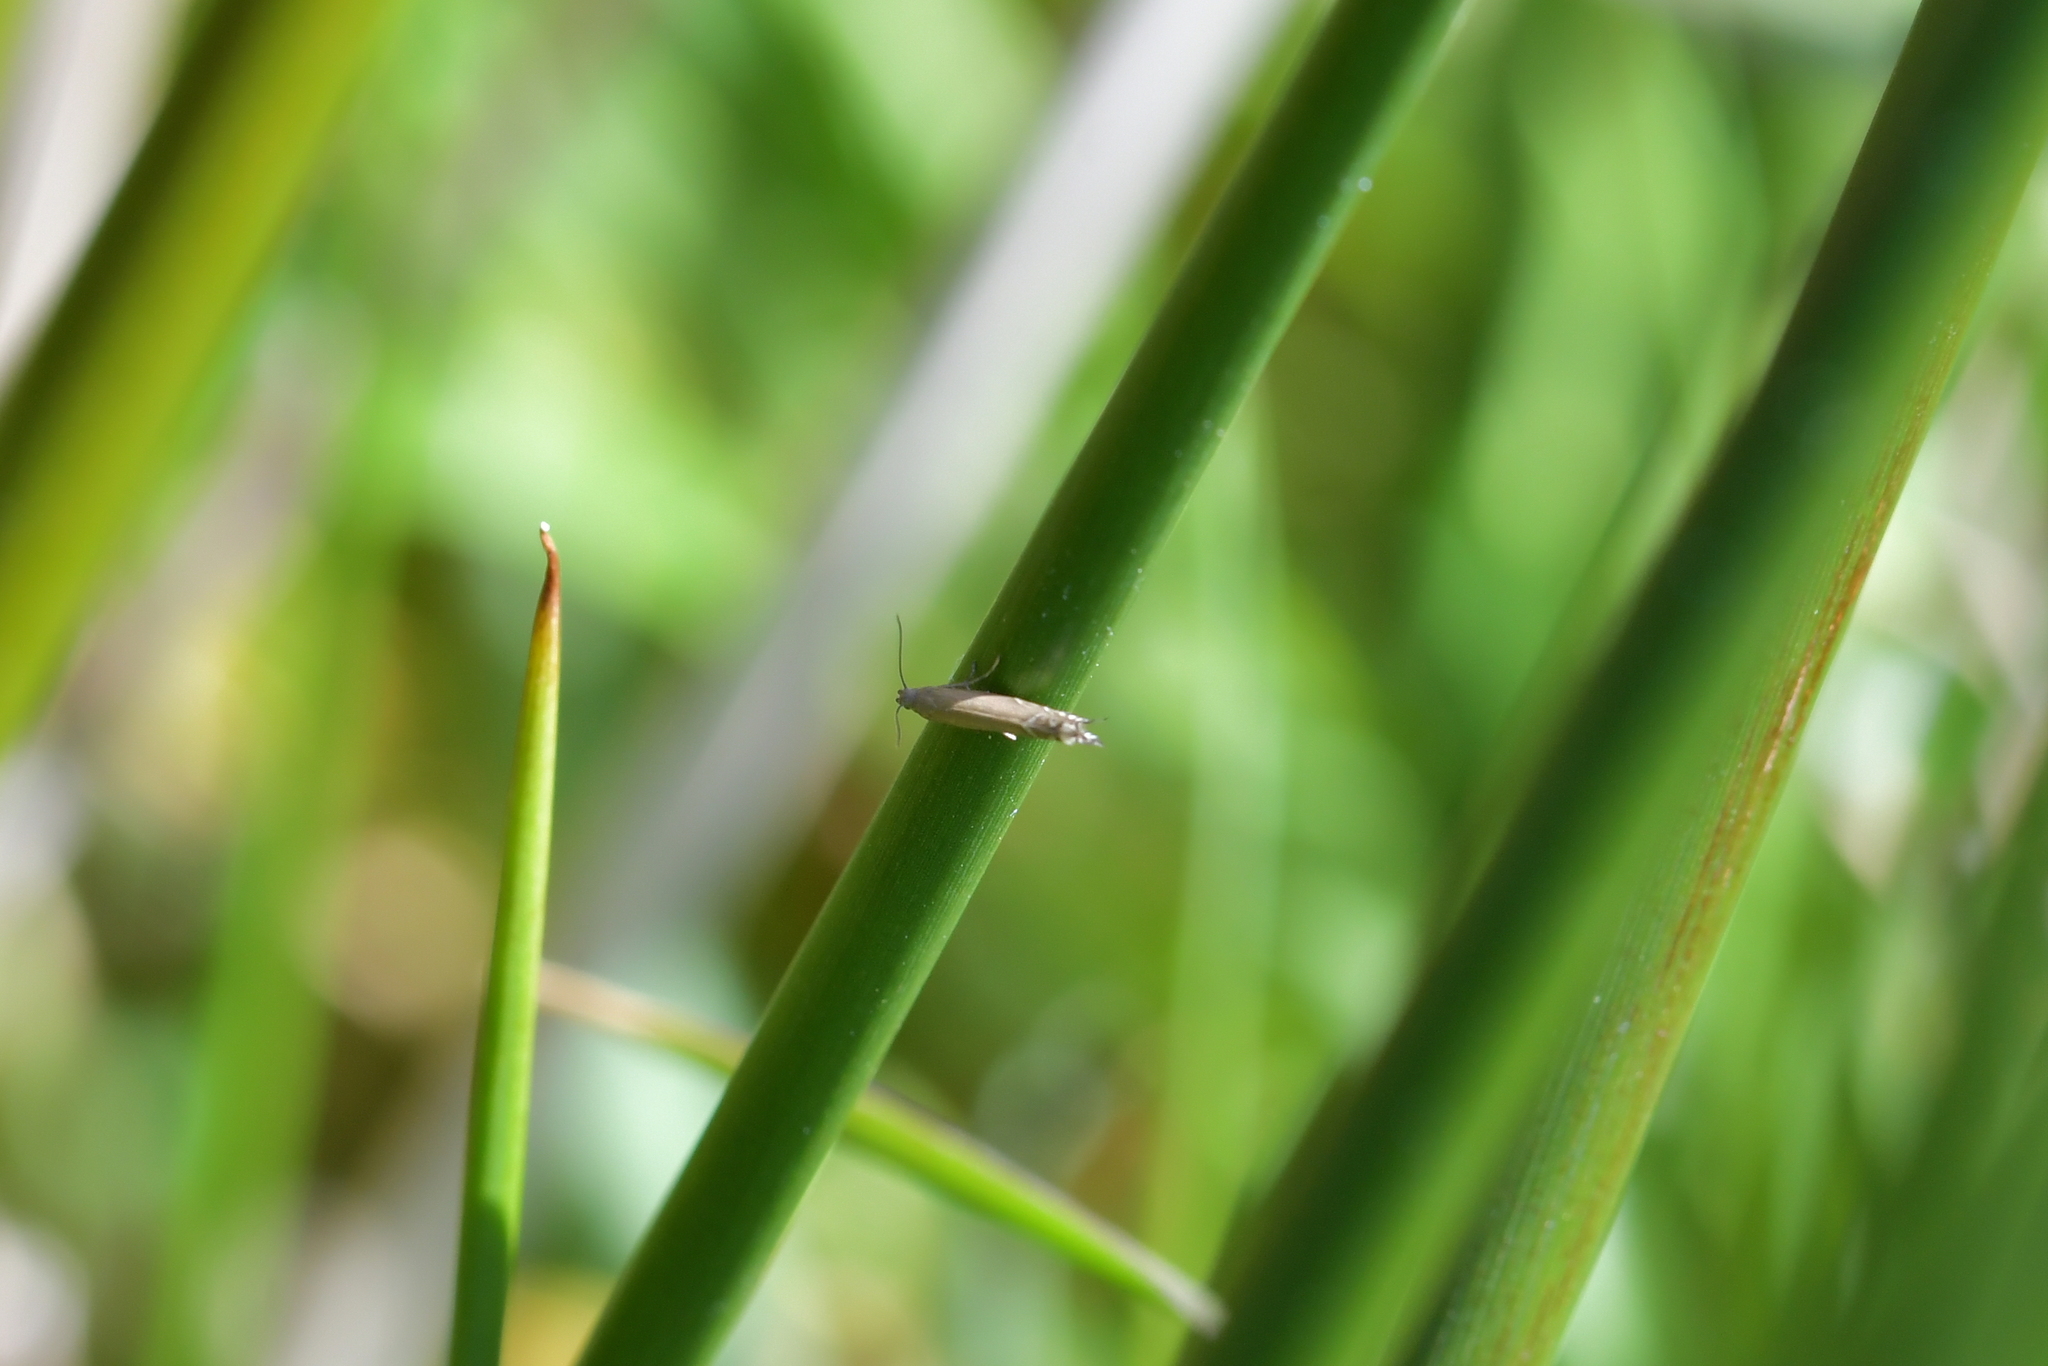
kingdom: Animalia
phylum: Arthropoda
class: Insecta
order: Lepidoptera
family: Glyphipterigidae
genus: Glyphipterix
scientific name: Glyphipterix iocheaera
